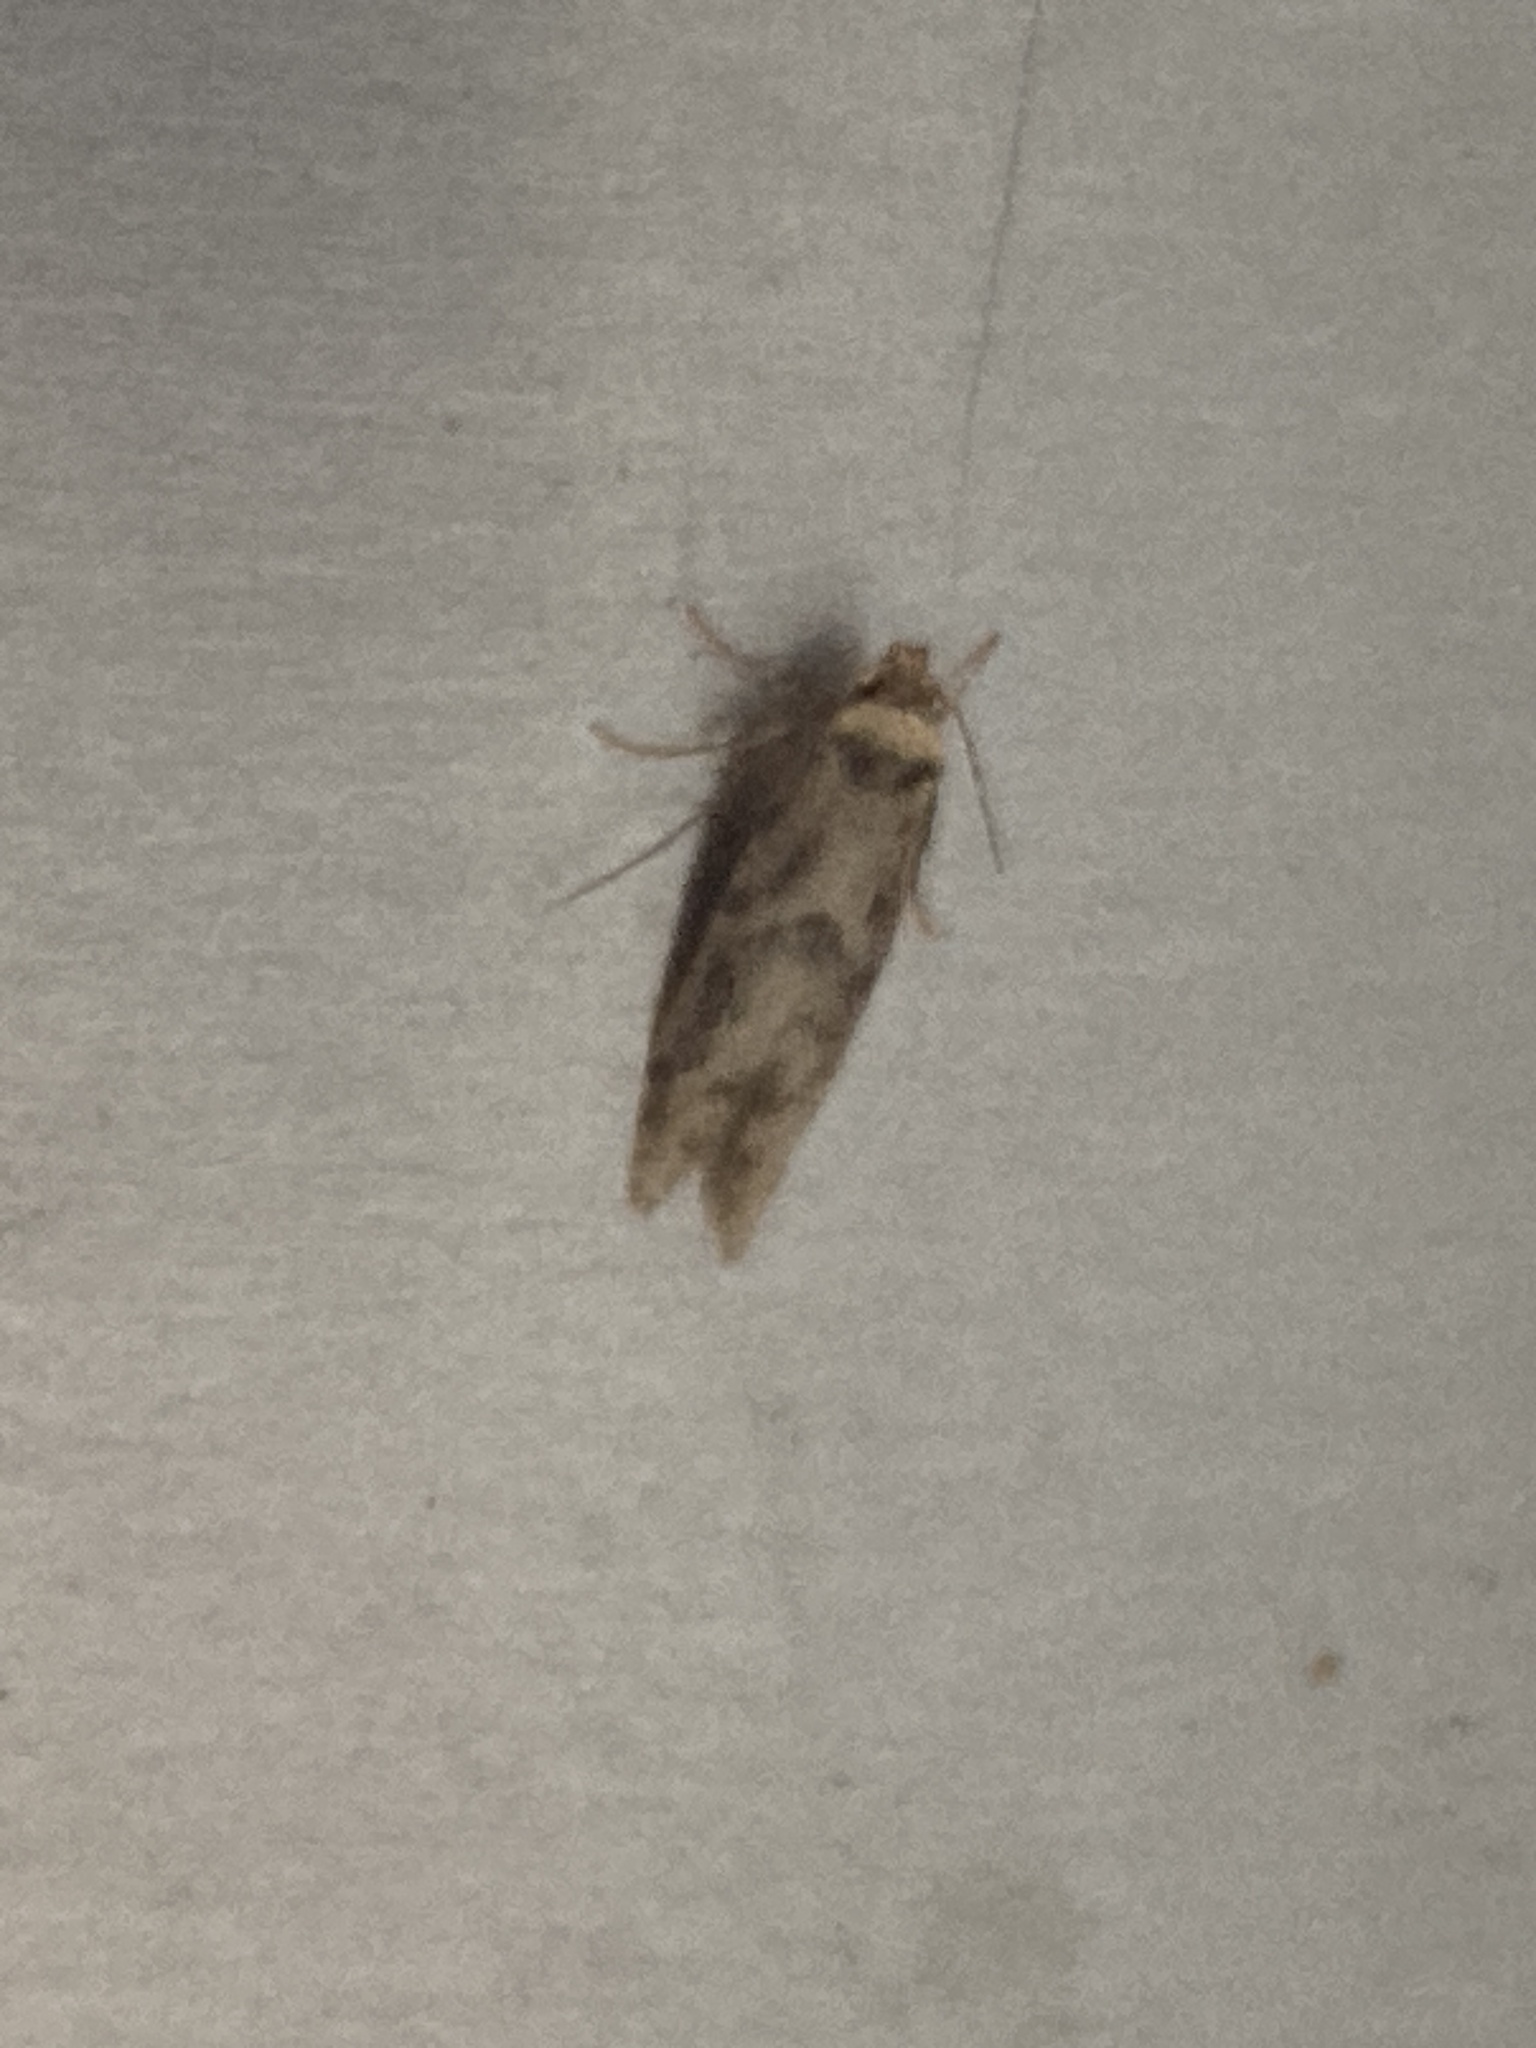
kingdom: Animalia
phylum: Arthropoda
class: Insecta
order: Lepidoptera
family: Blastobasidae
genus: Blastobasis
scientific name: Blastobasis adustella
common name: Dingy dowd
